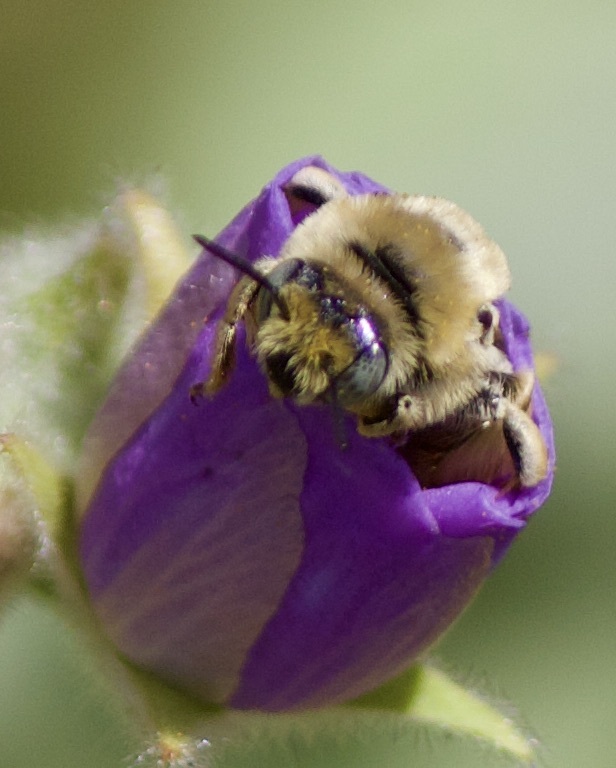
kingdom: Animalia
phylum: Arthropoda
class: Insecta
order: Hymenoptera
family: Apidae
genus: Diadasia
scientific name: Diadasia chilensis
